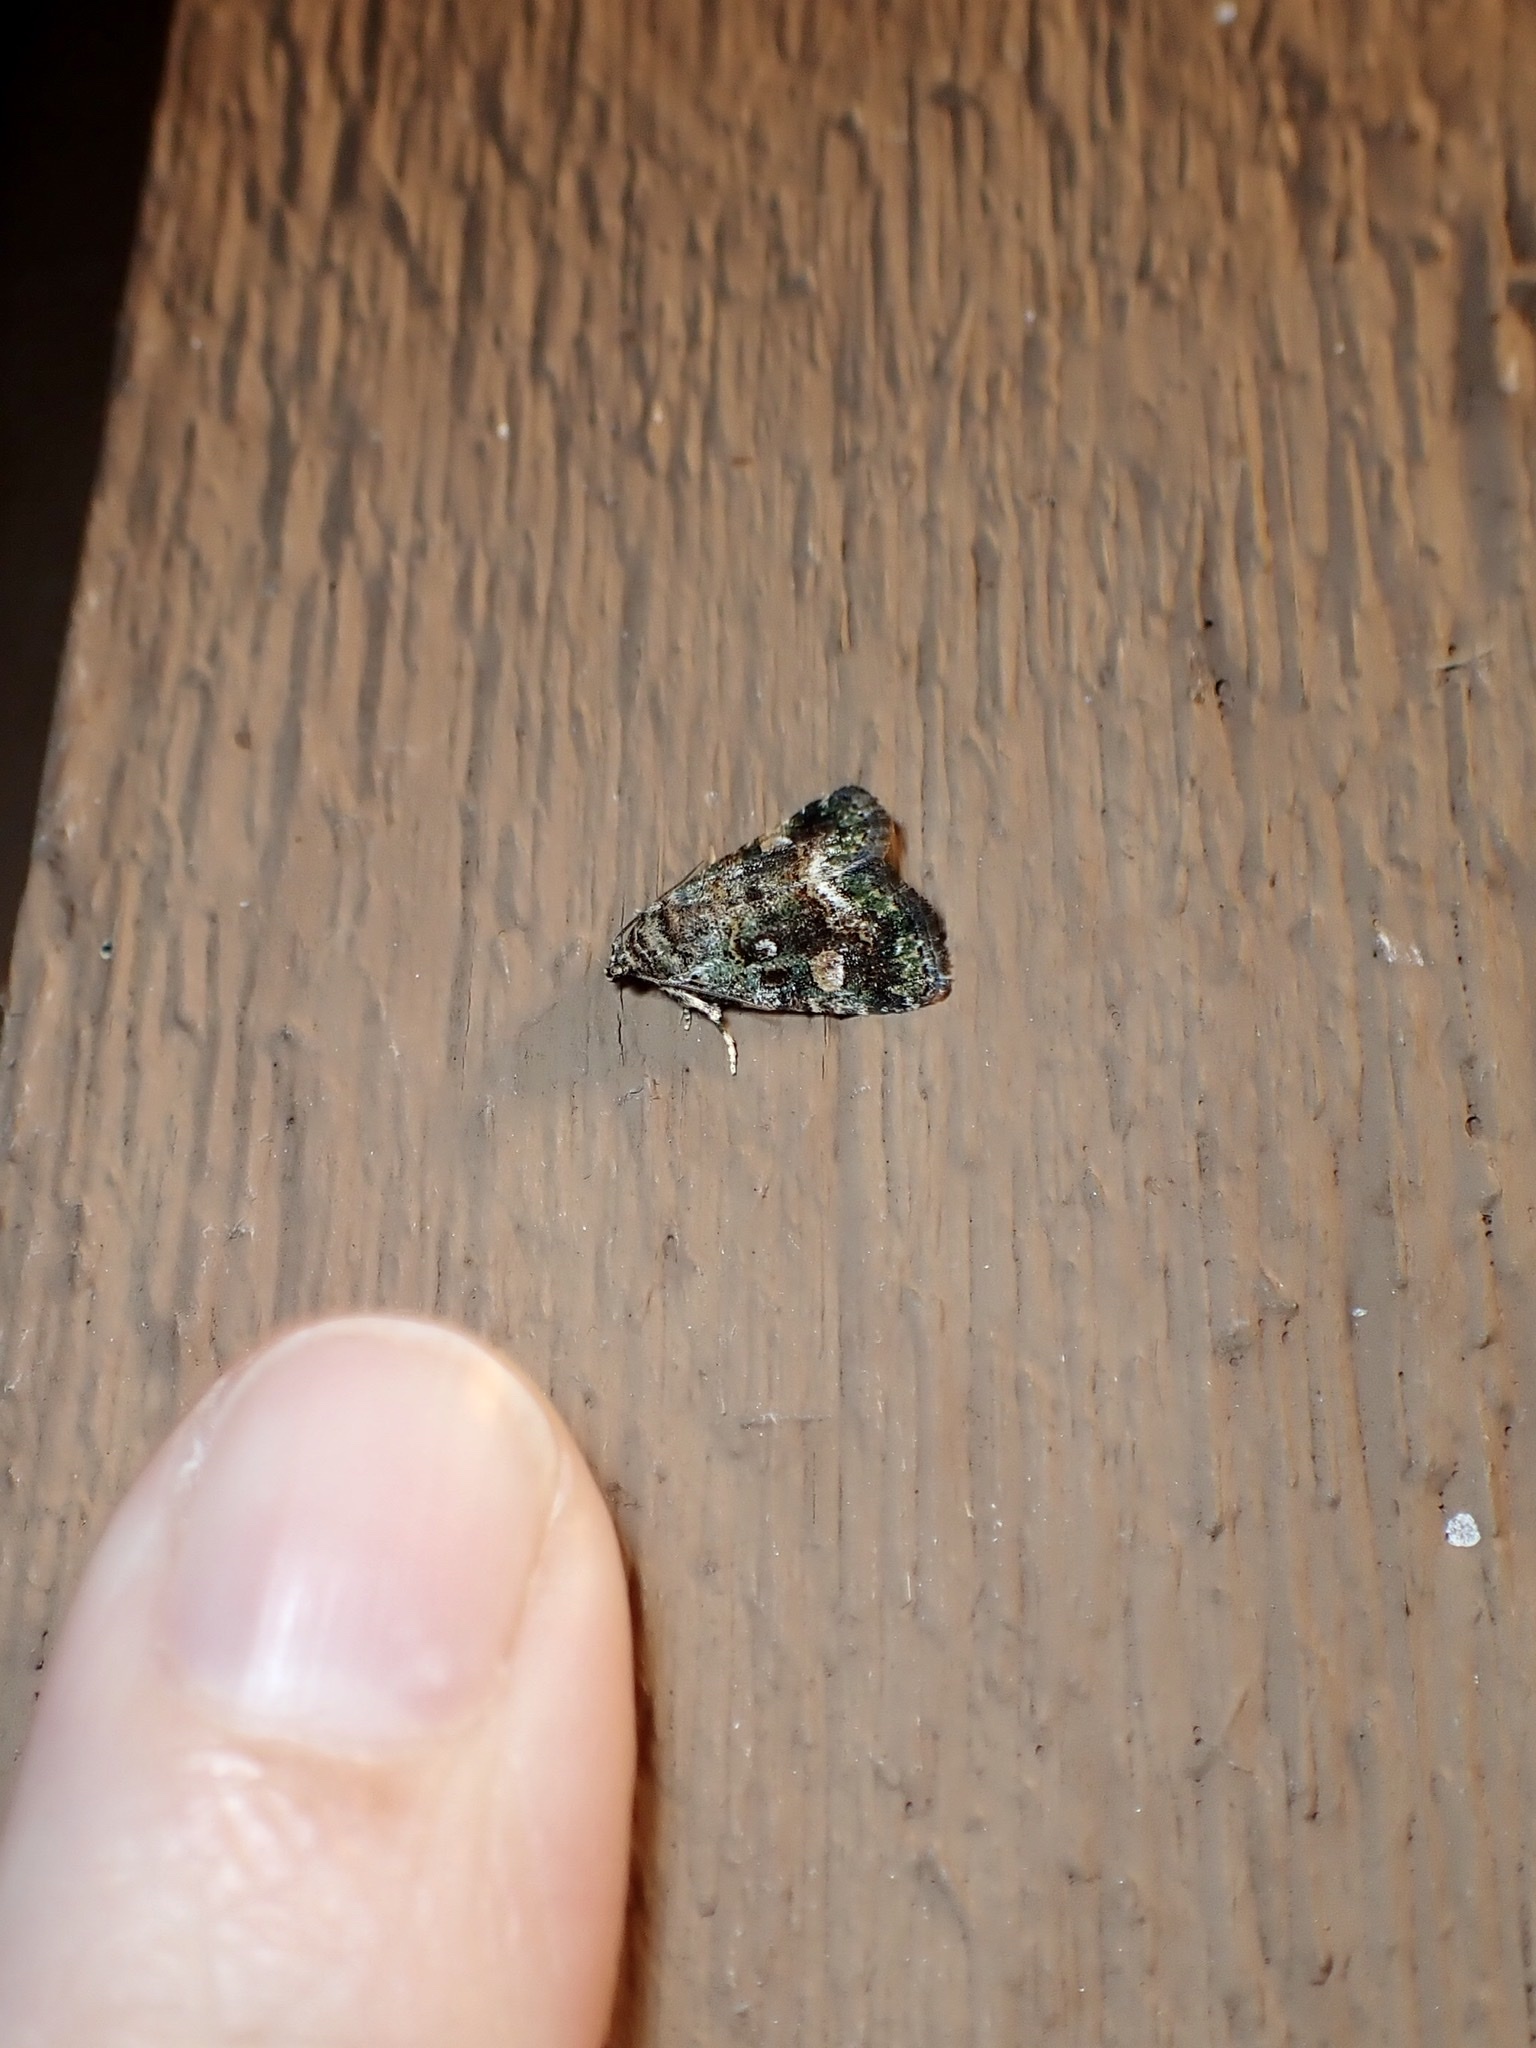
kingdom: Animalia
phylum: Arthropoda
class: Insecta
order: Lepidoptera
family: Noctuidae
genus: Lithacodia
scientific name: Lithacodia musta
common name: Small mossy glyph
